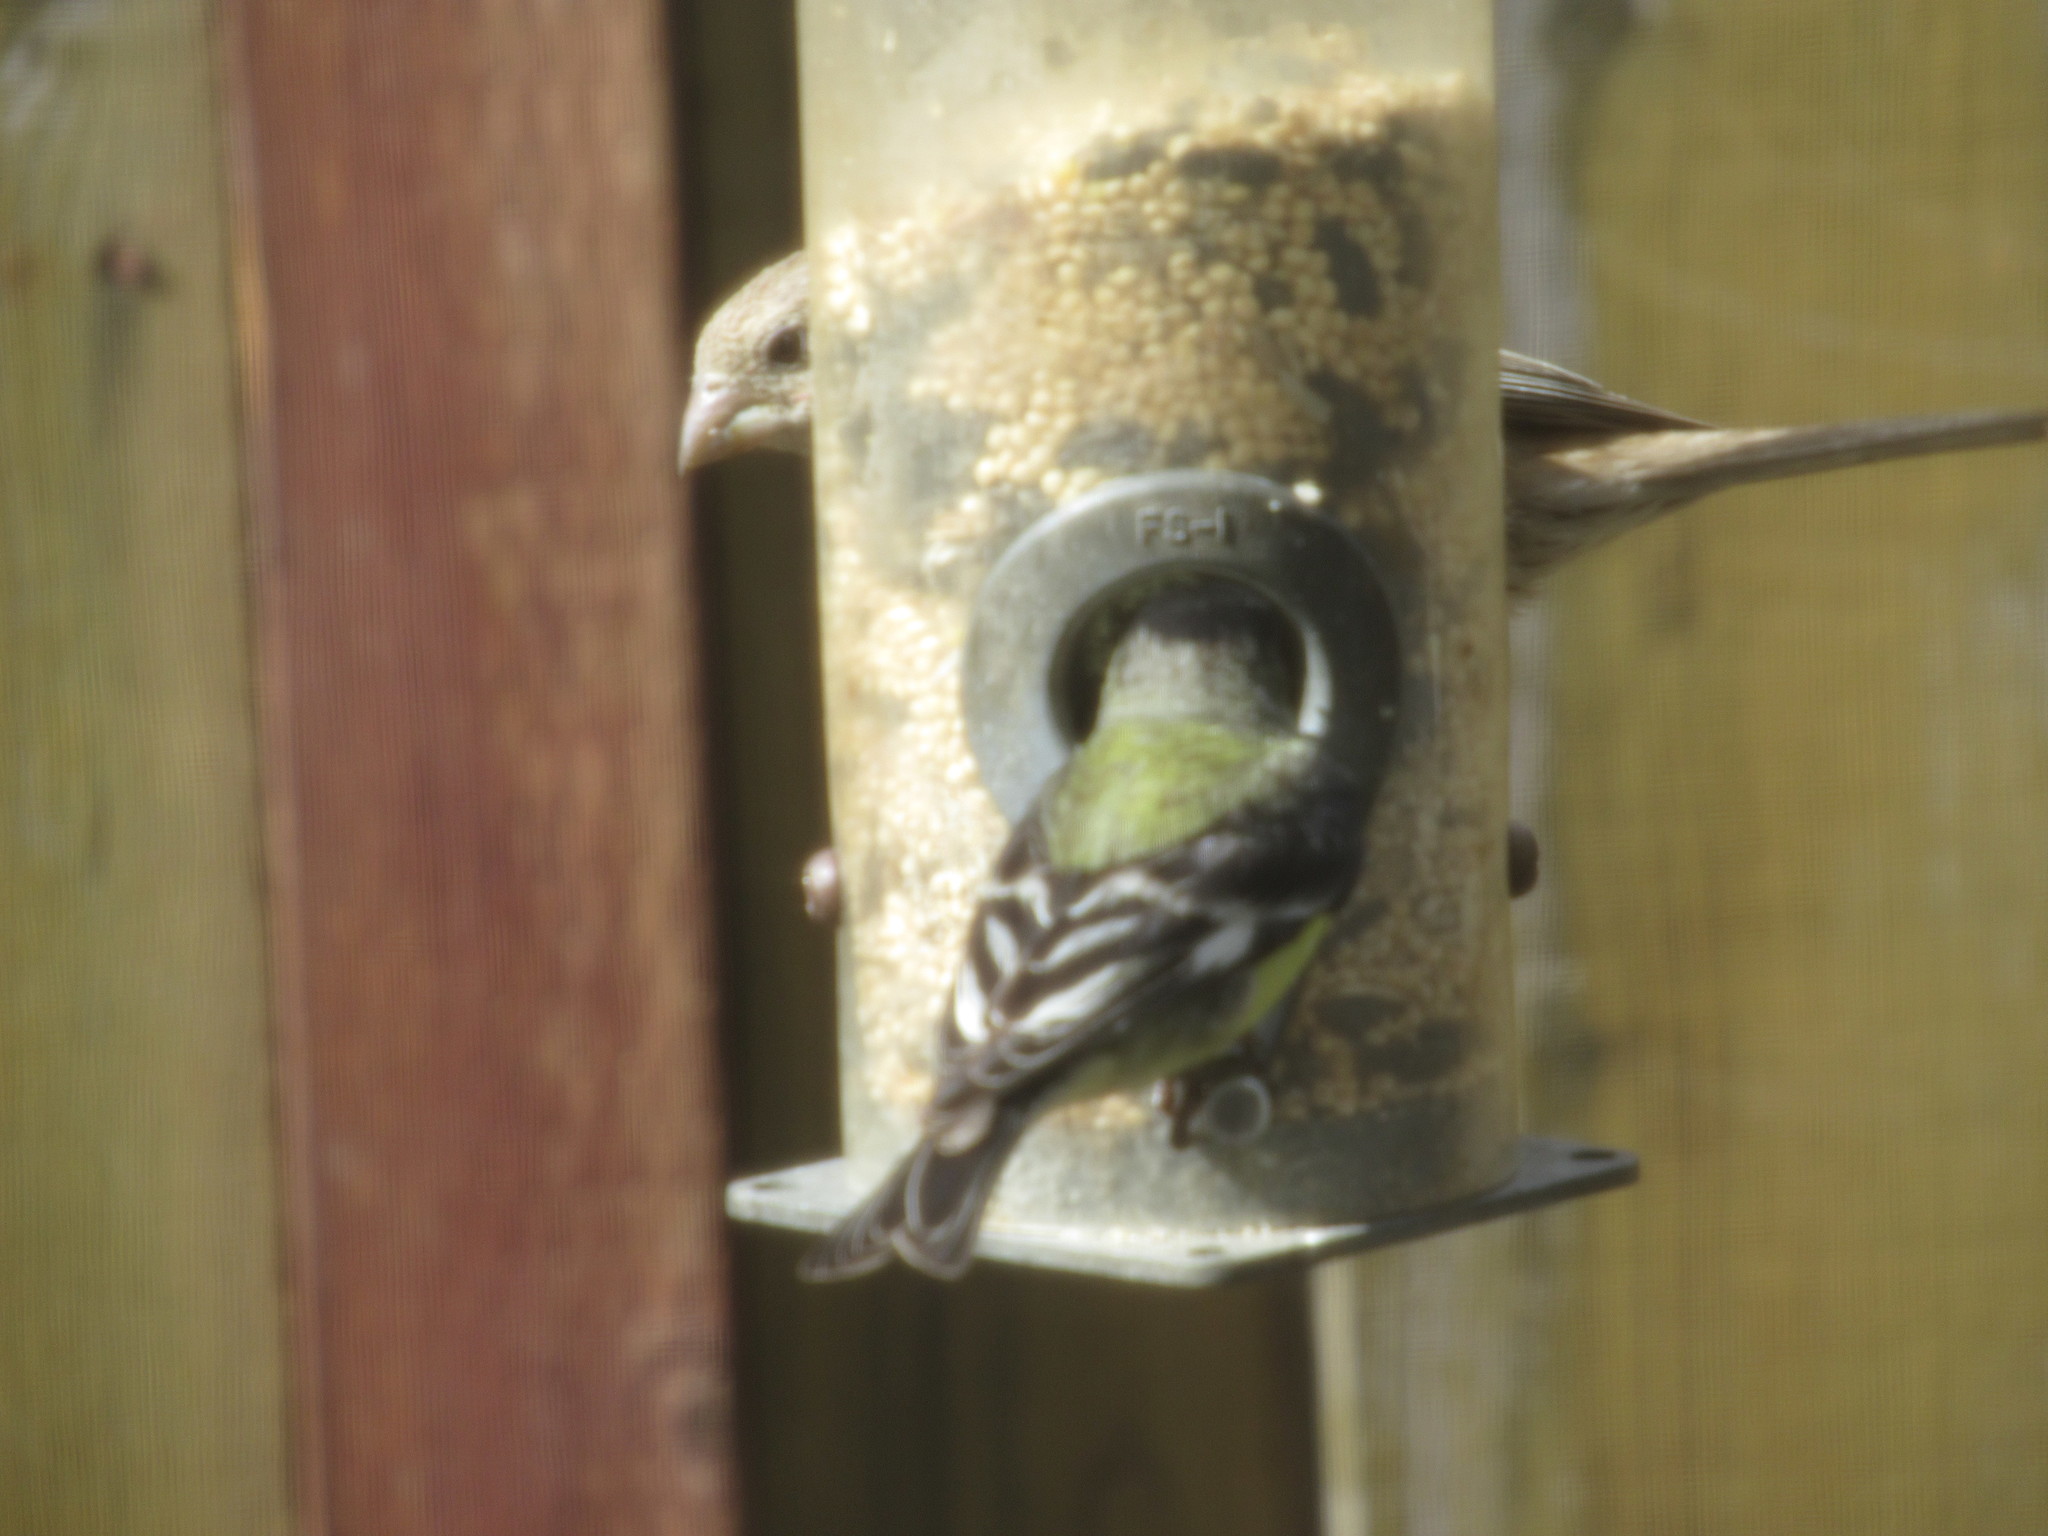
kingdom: Animalia
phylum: Chordata
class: Aves
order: Passeriformes
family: Fringillidae
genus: Spinus
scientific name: Spinus psaltria
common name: Lesser goldfinch
